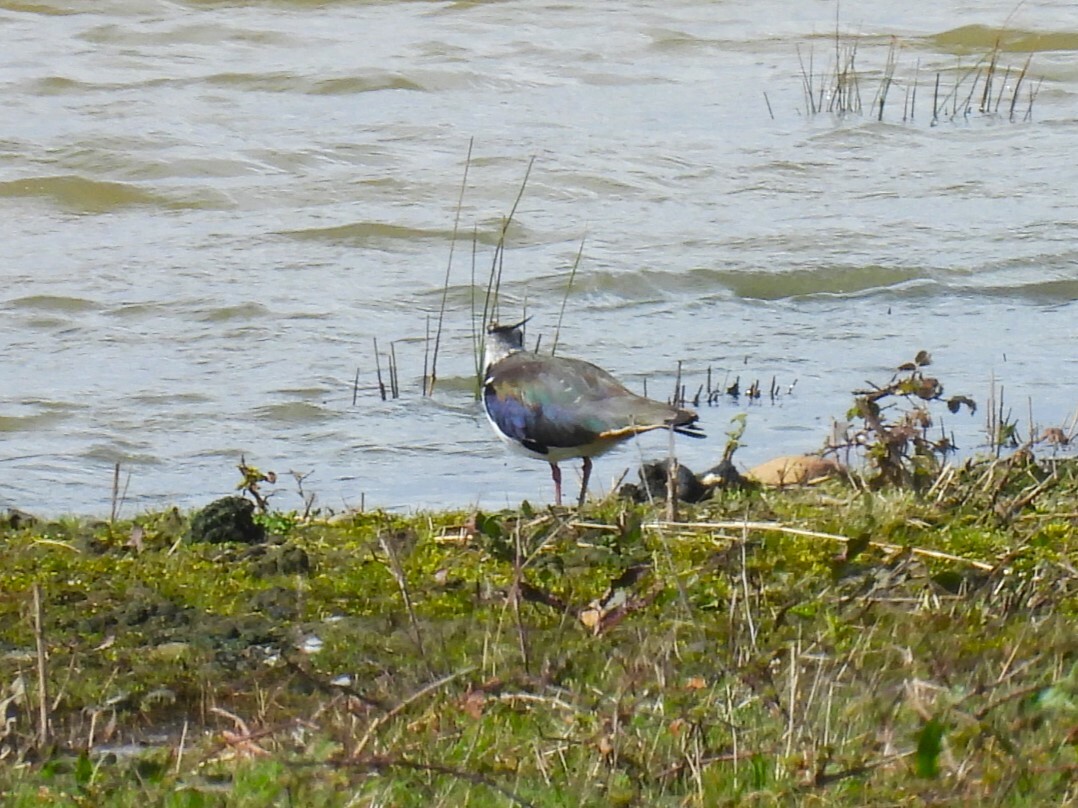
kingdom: Animalia
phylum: Chordata
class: Aves
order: Charadriiformes
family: Charadriidae
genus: Vanellus
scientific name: Vanellus vanellus
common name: Northern lapwing
